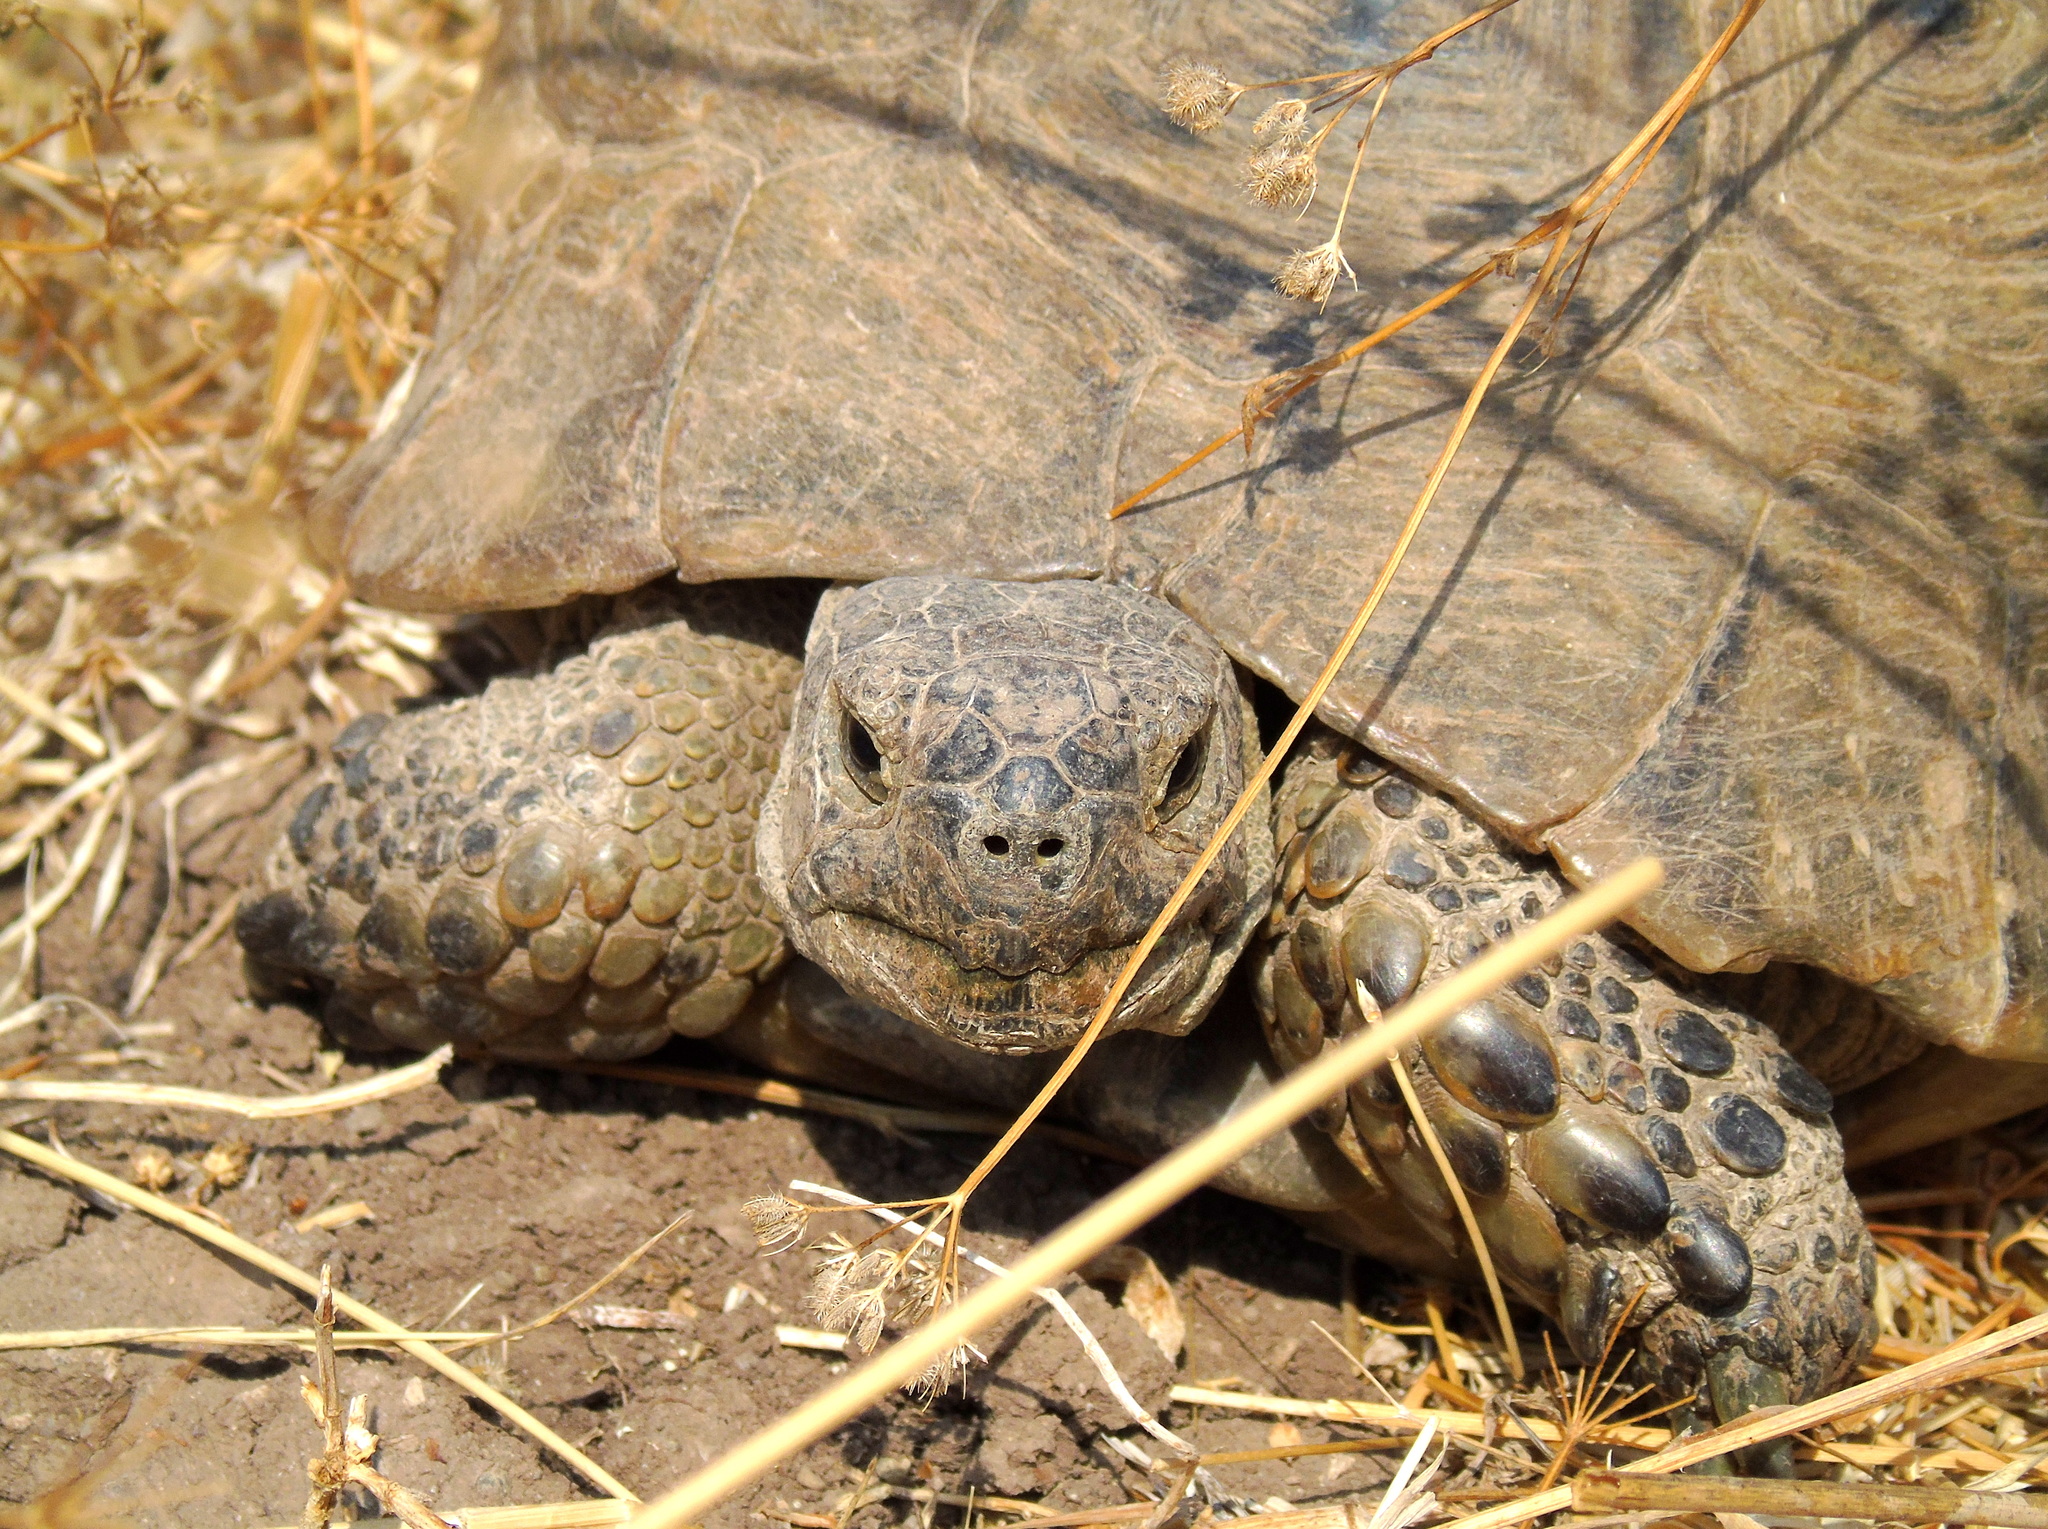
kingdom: Animalia
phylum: Chordata
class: Testudines
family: Testudinidae
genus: Testudo
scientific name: Testudo graeca
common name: Common tortoise
